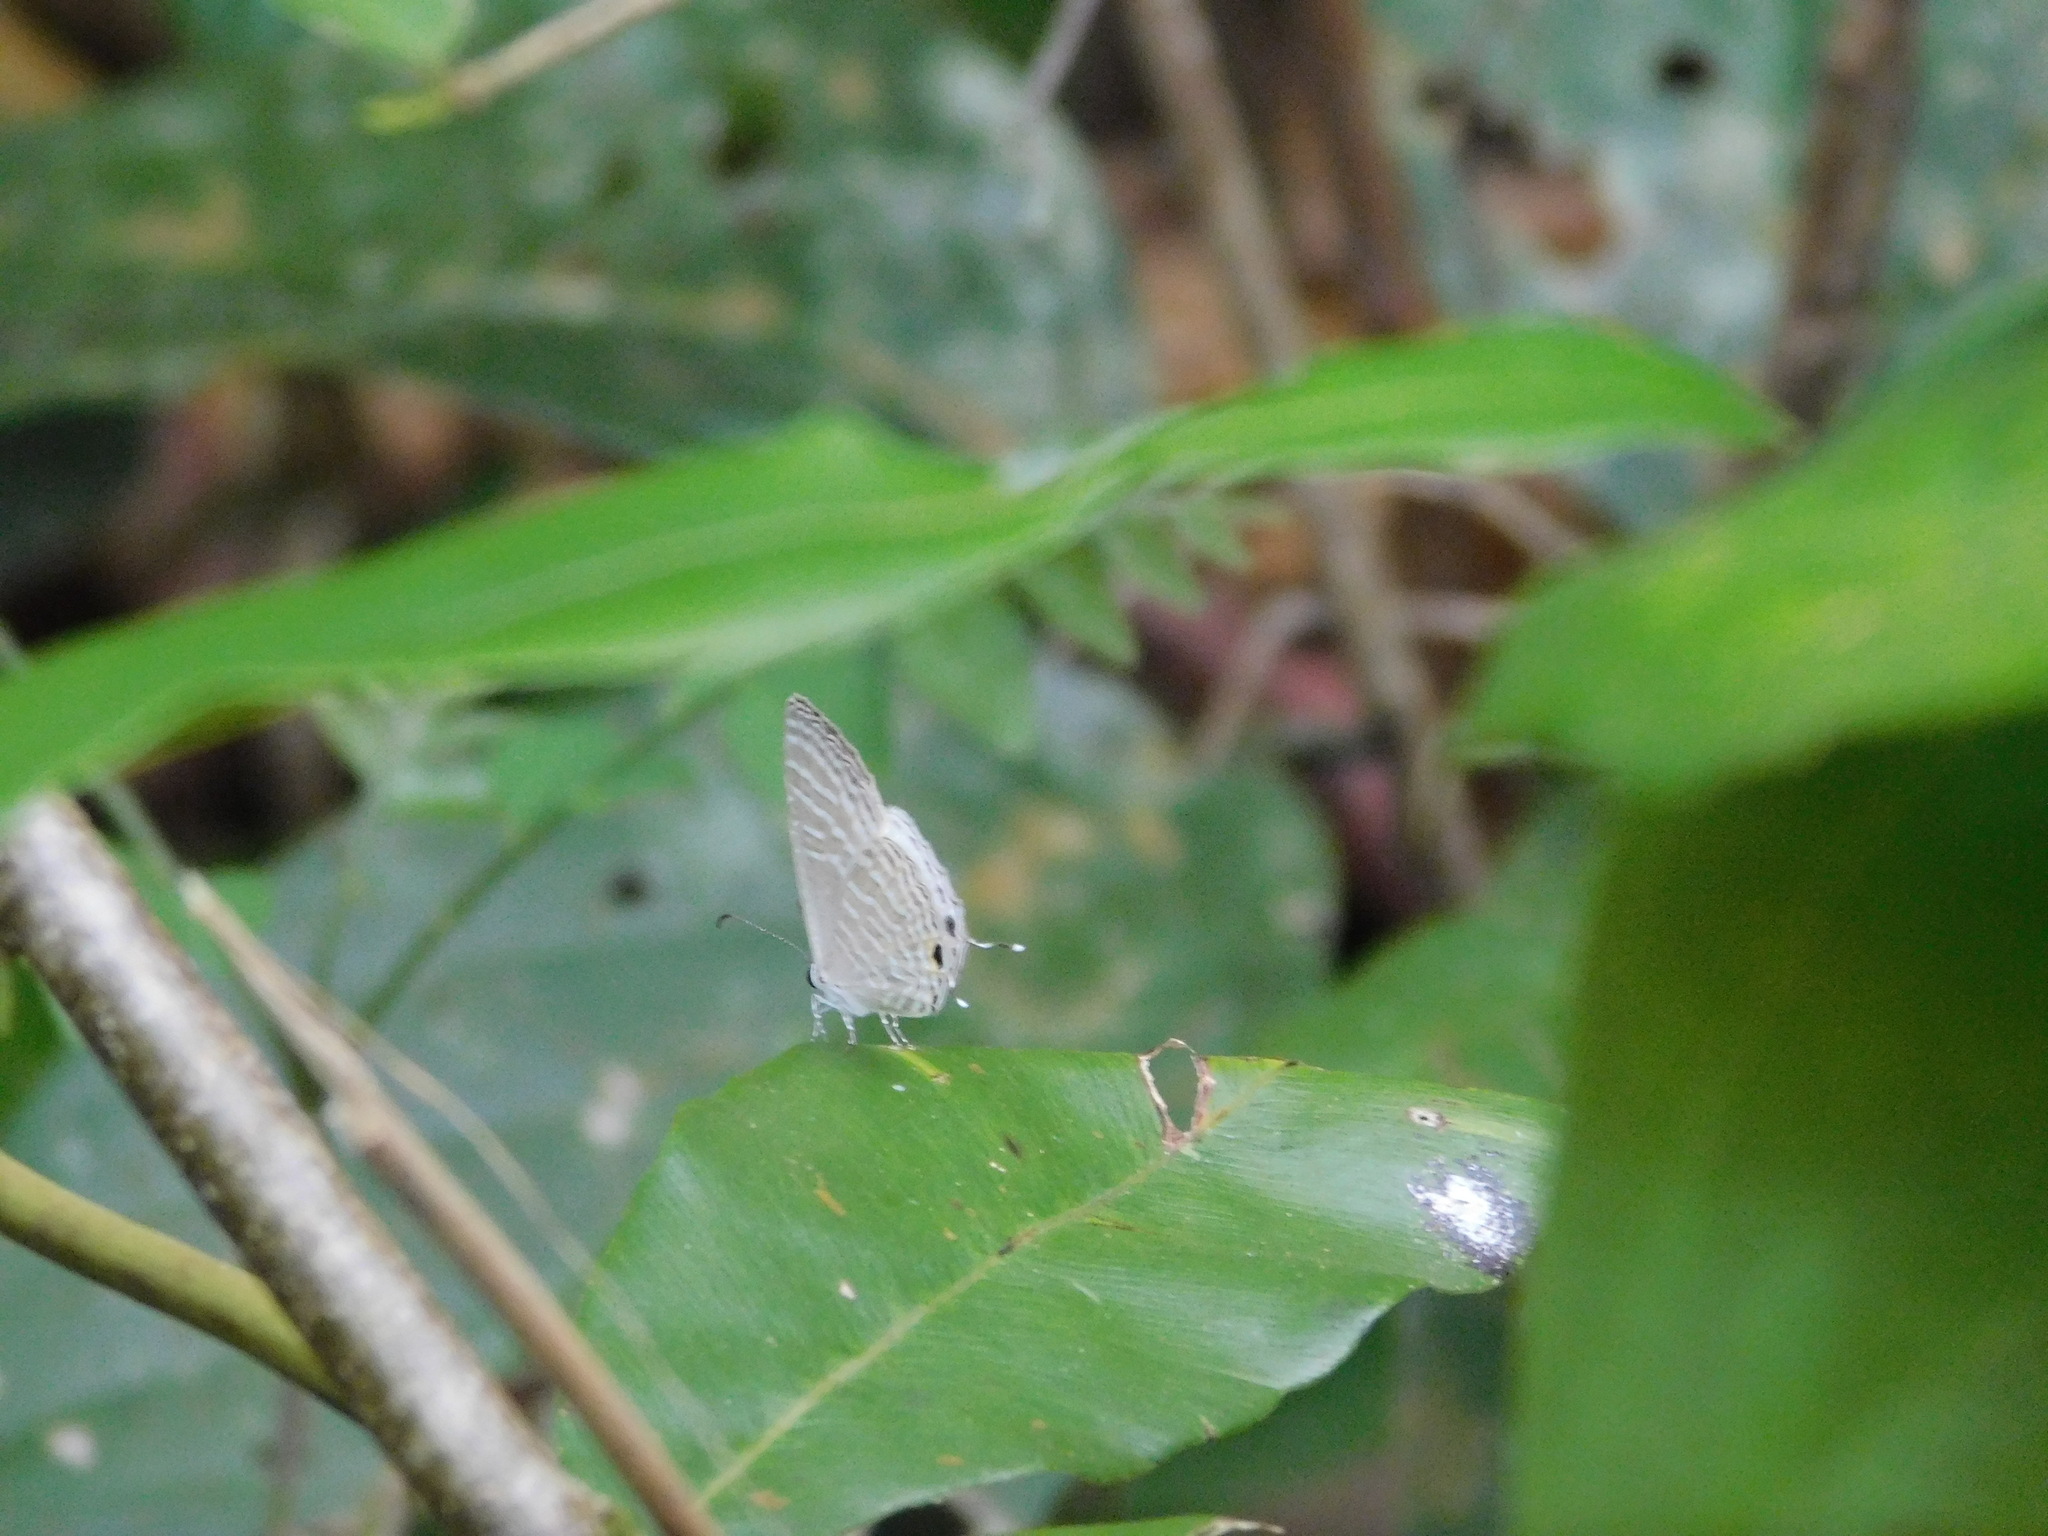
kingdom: Animalia
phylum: Arthropoda
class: Insecta
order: Lepidoptera
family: Lycaenidae
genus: Jamides
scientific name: Jamides celeno
